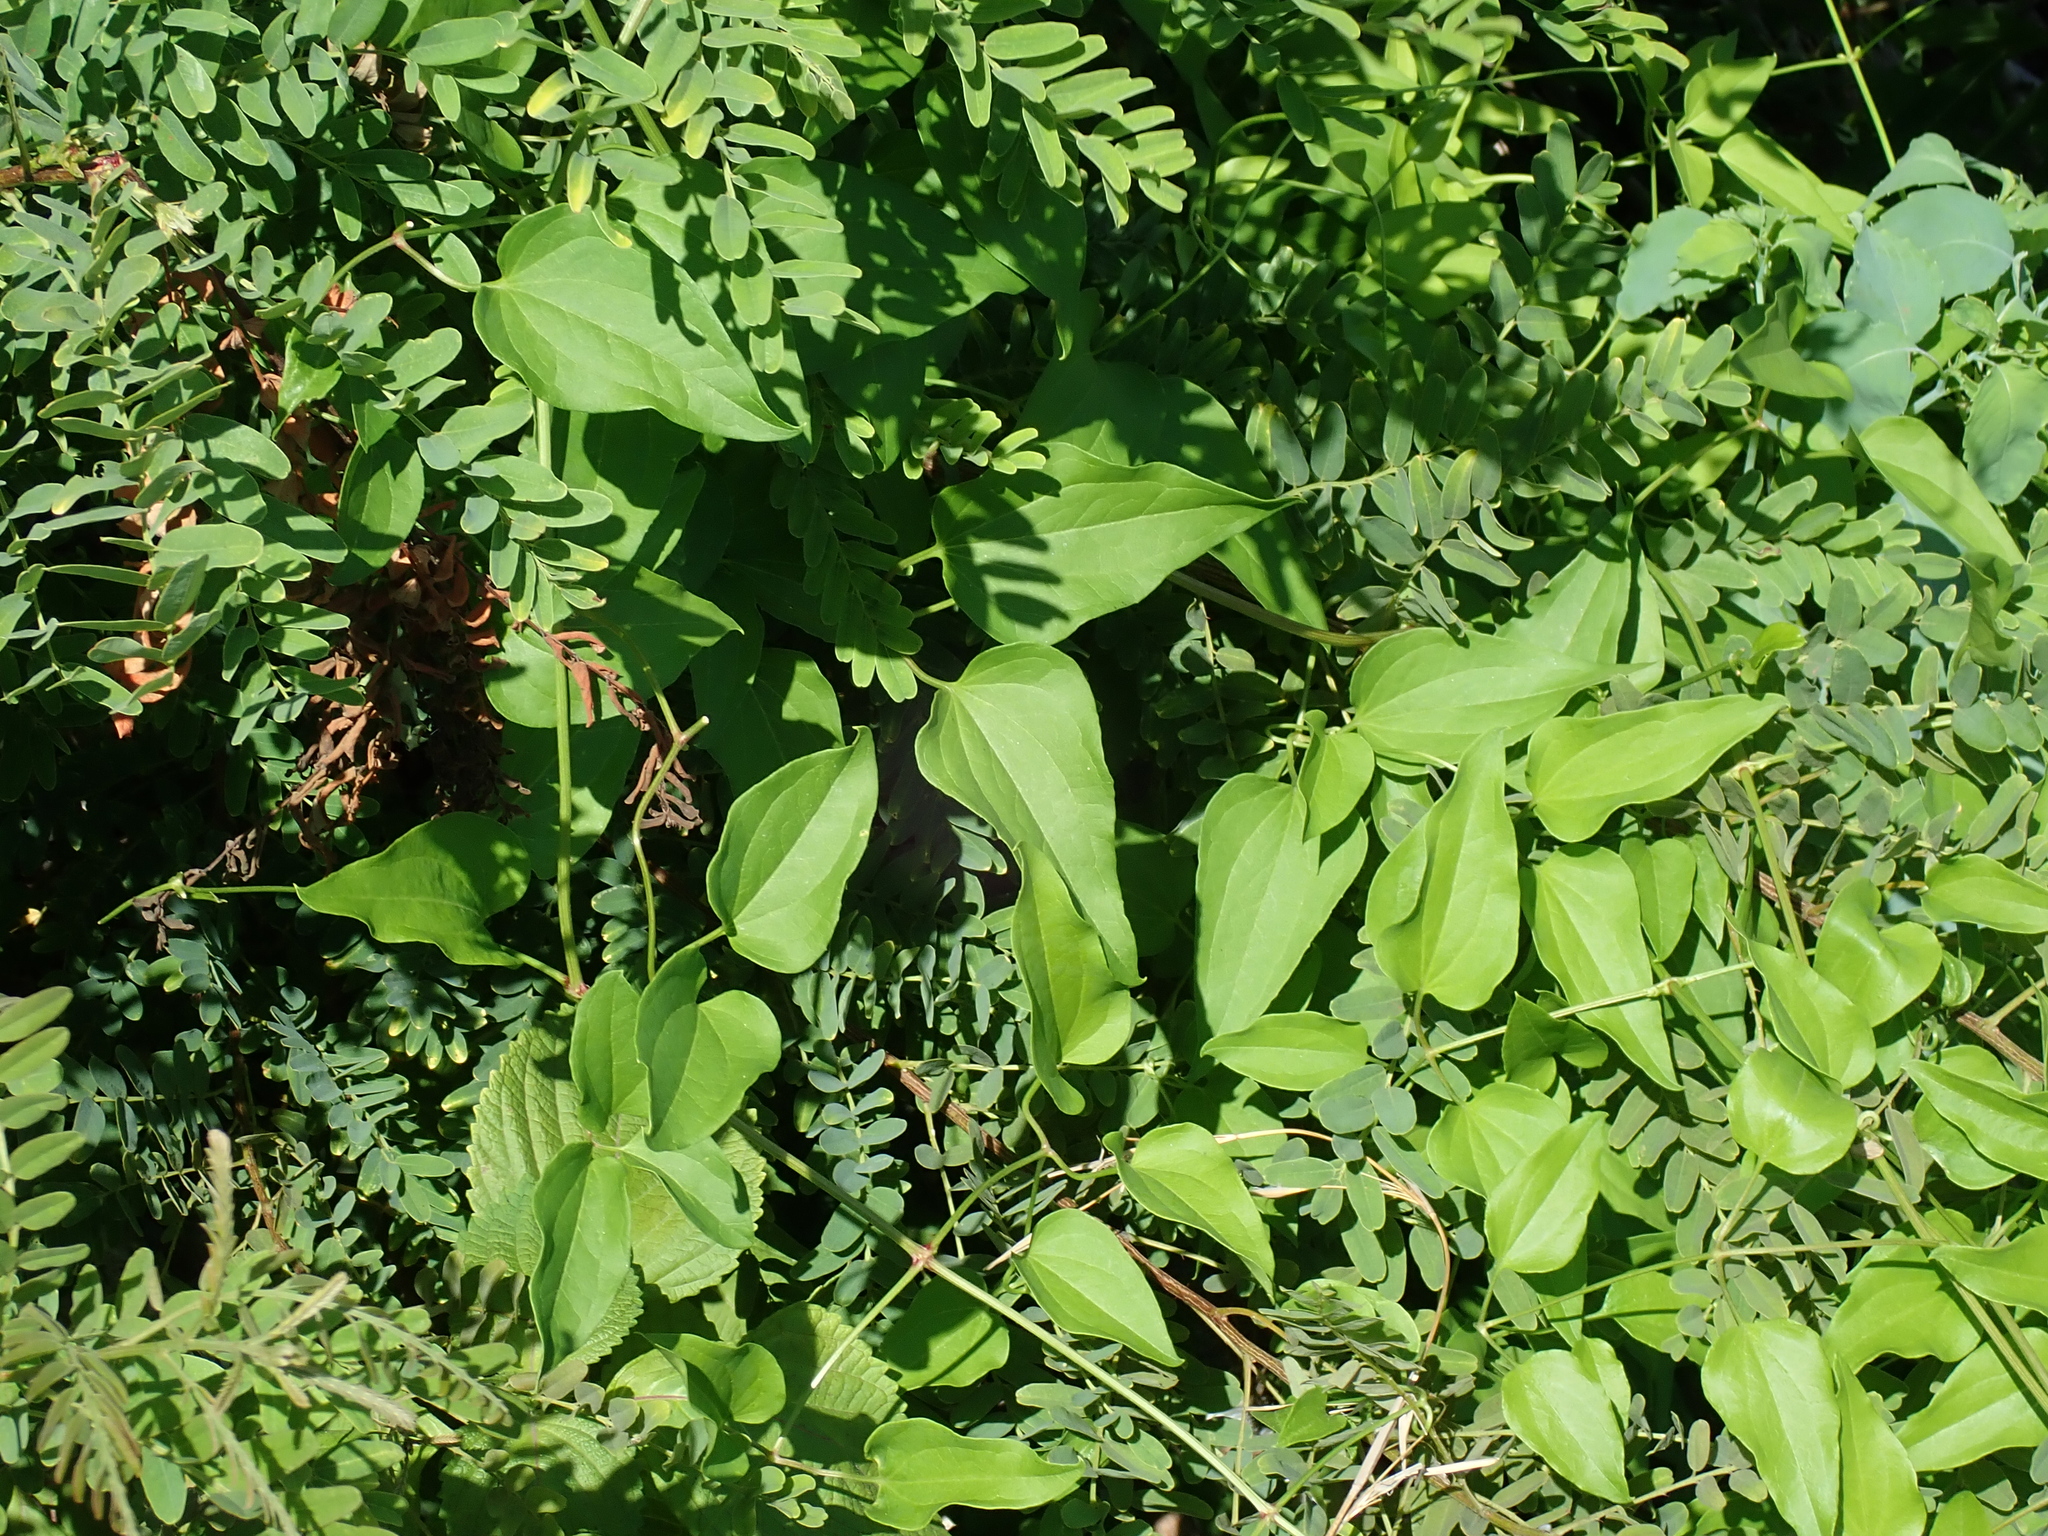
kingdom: Plantae
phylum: Tracheophyta
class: Magnoliopsida
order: Ranunculales
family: Ranunculaceae
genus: Clematis
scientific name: Clematis terniflora
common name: Sweet autumn clematis
